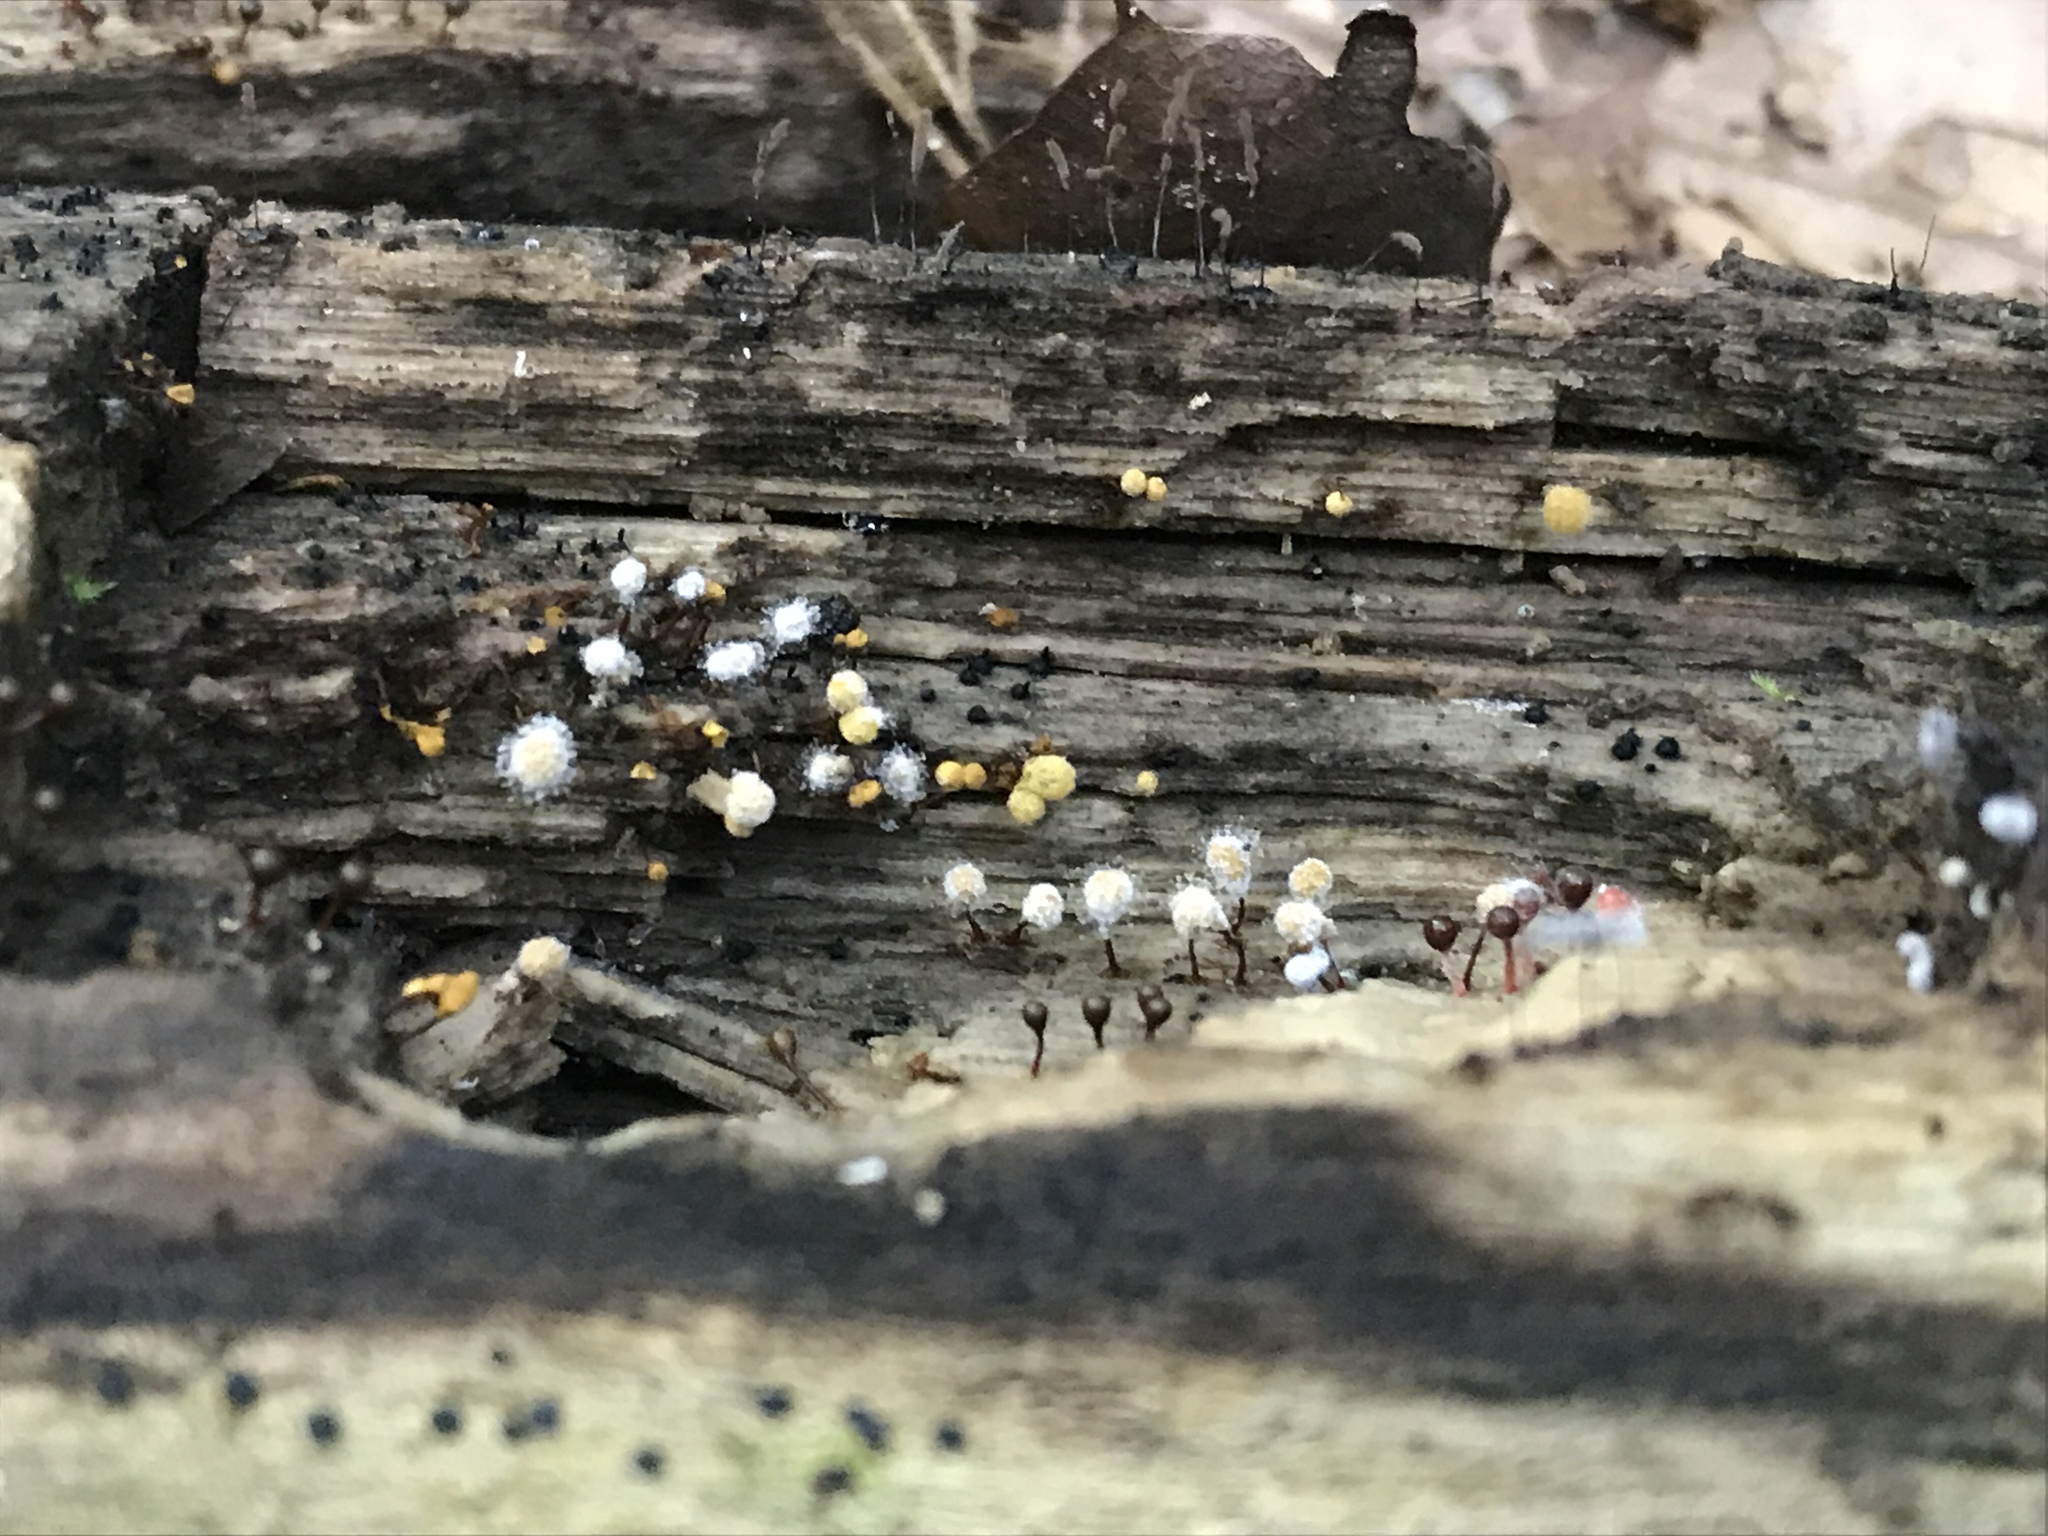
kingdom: Protozoa
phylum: Mycetozoa
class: Myxomycetes
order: Trichiales
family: Arcyriaceae
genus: Hemitrichia
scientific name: Hemitrichia calyculata
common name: Push pin slime mold
